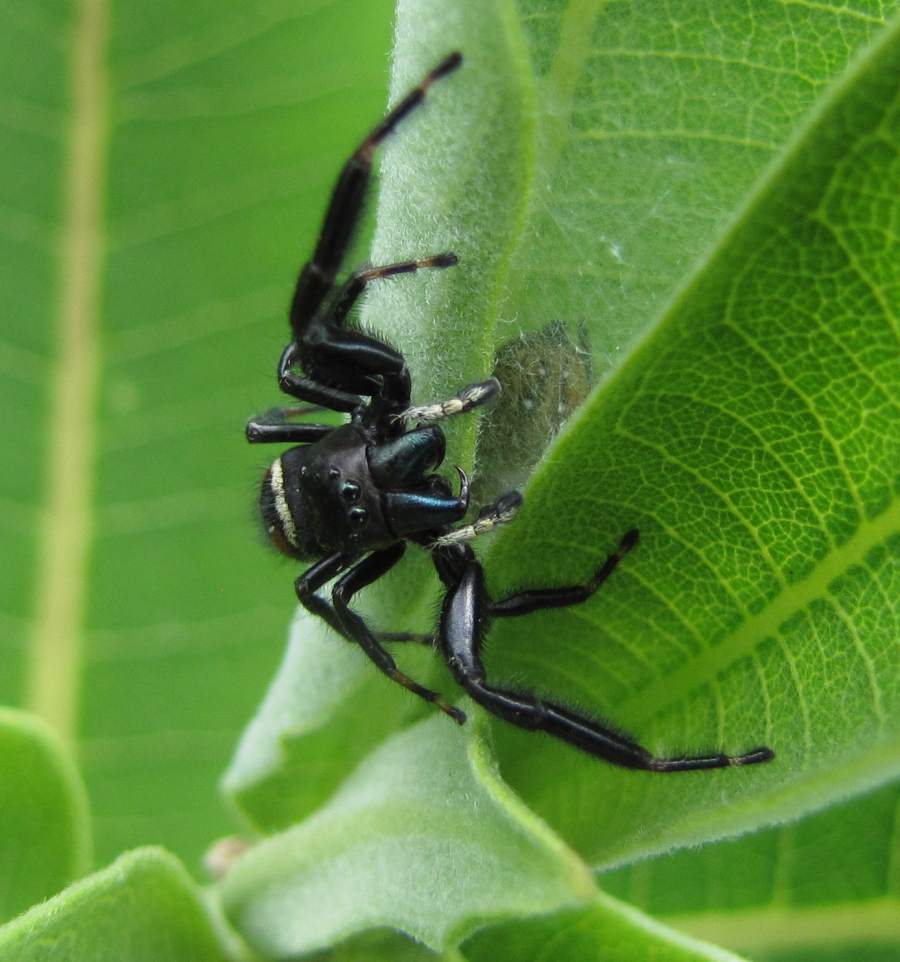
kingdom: Animalia
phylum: Arthropoda
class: Arachnida
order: Araneae
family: Salticidae
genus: Phidippus
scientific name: Phidippus clarus
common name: Brilliant jumping spider
